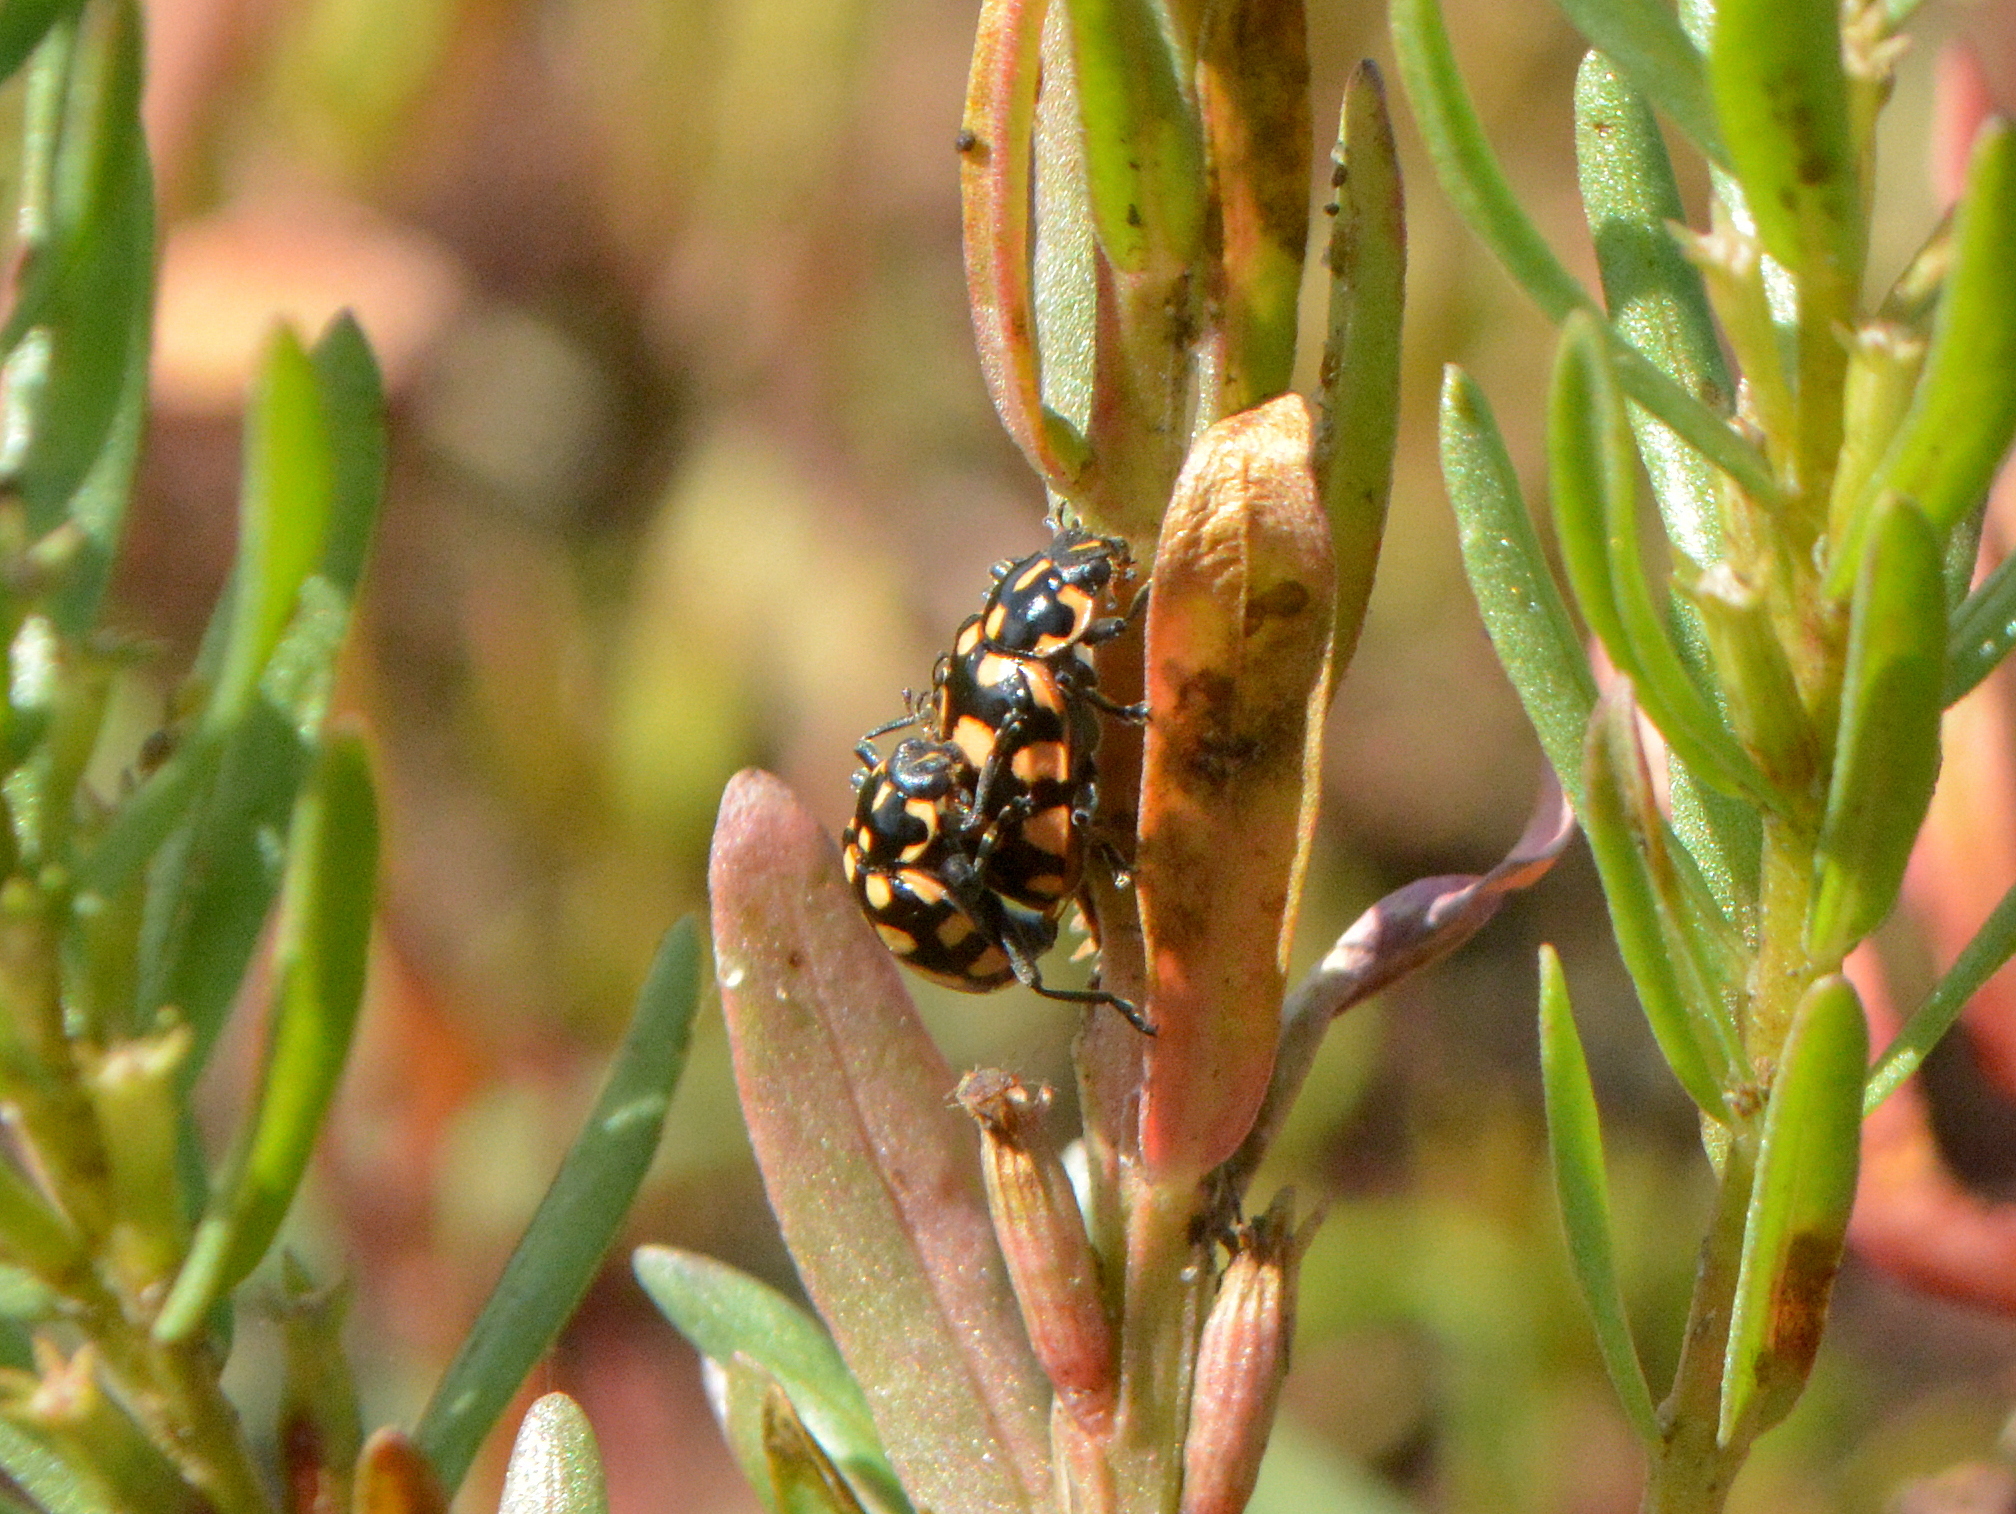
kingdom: Animalia
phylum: Arthropoda
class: Insecta
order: Coleoptera
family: Coccinellidae
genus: Coleomegilla
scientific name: Coleomegilla
